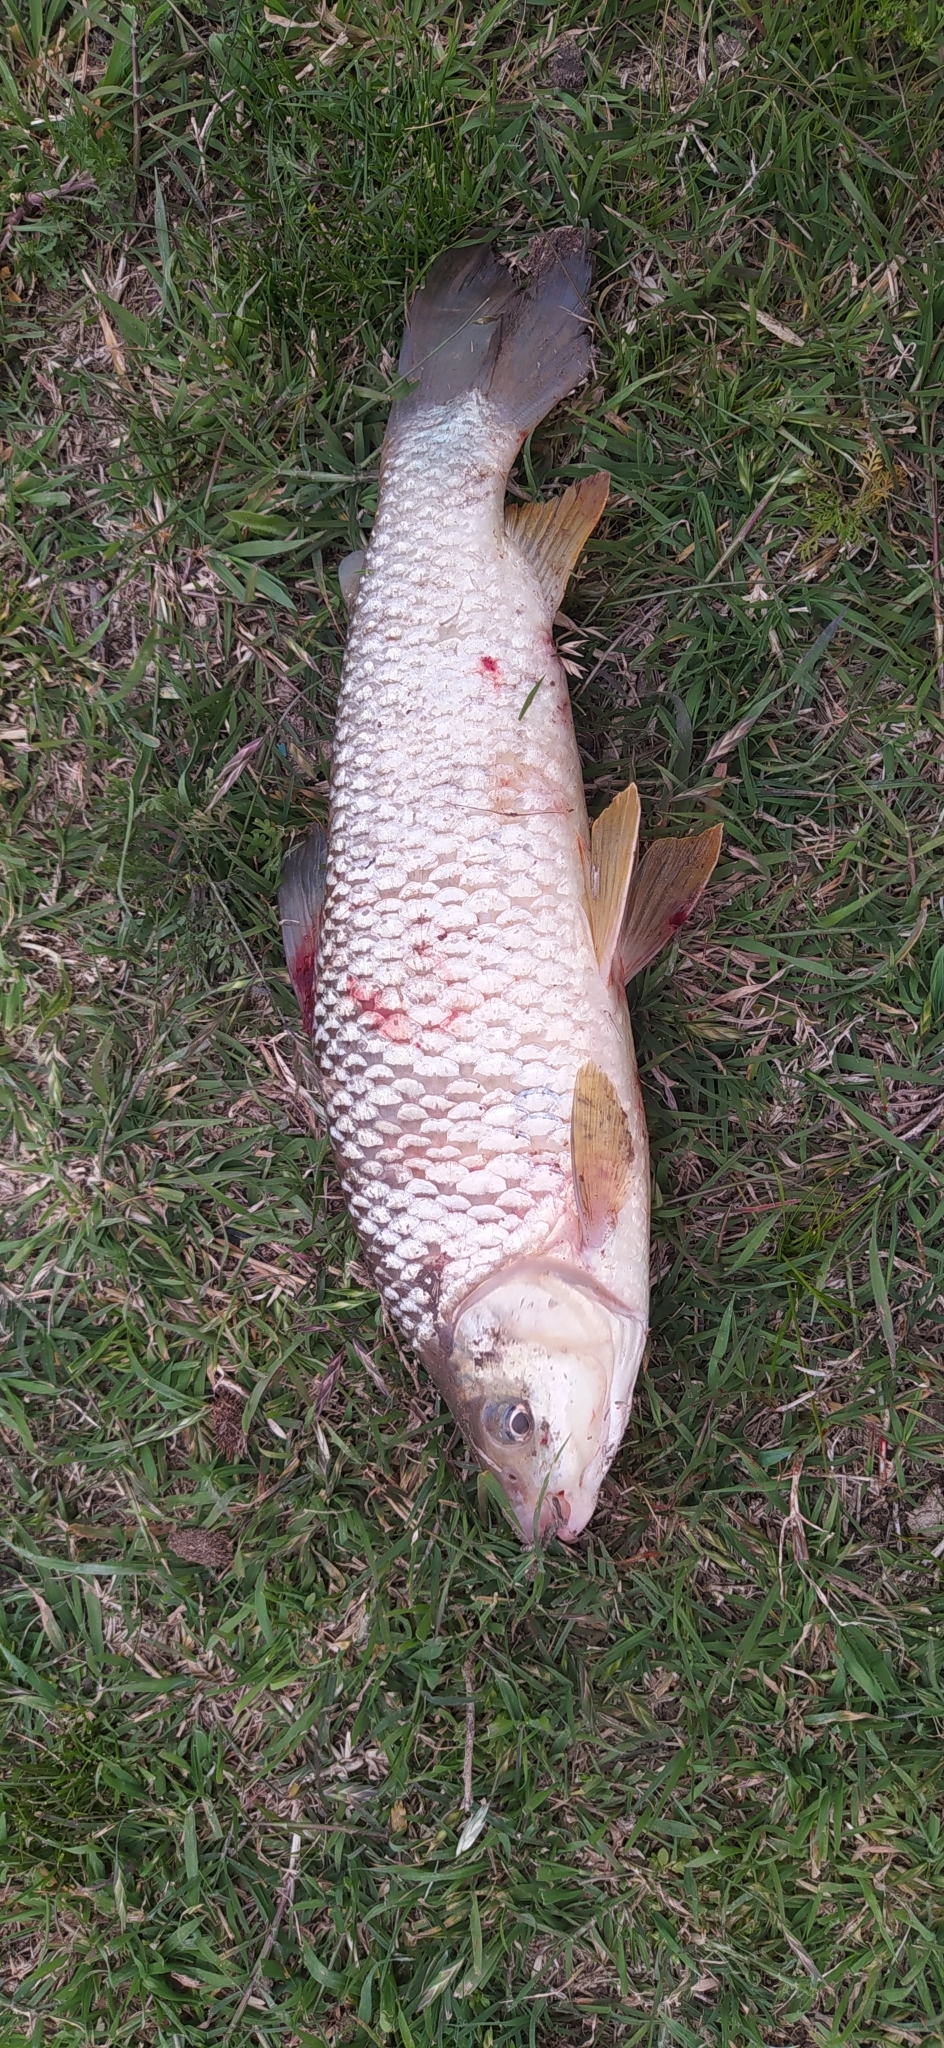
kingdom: Animalia
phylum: Chordata
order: Characiformes
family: Anostomidae
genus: Leporinus
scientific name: Leporinus obtusidens
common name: Characin
